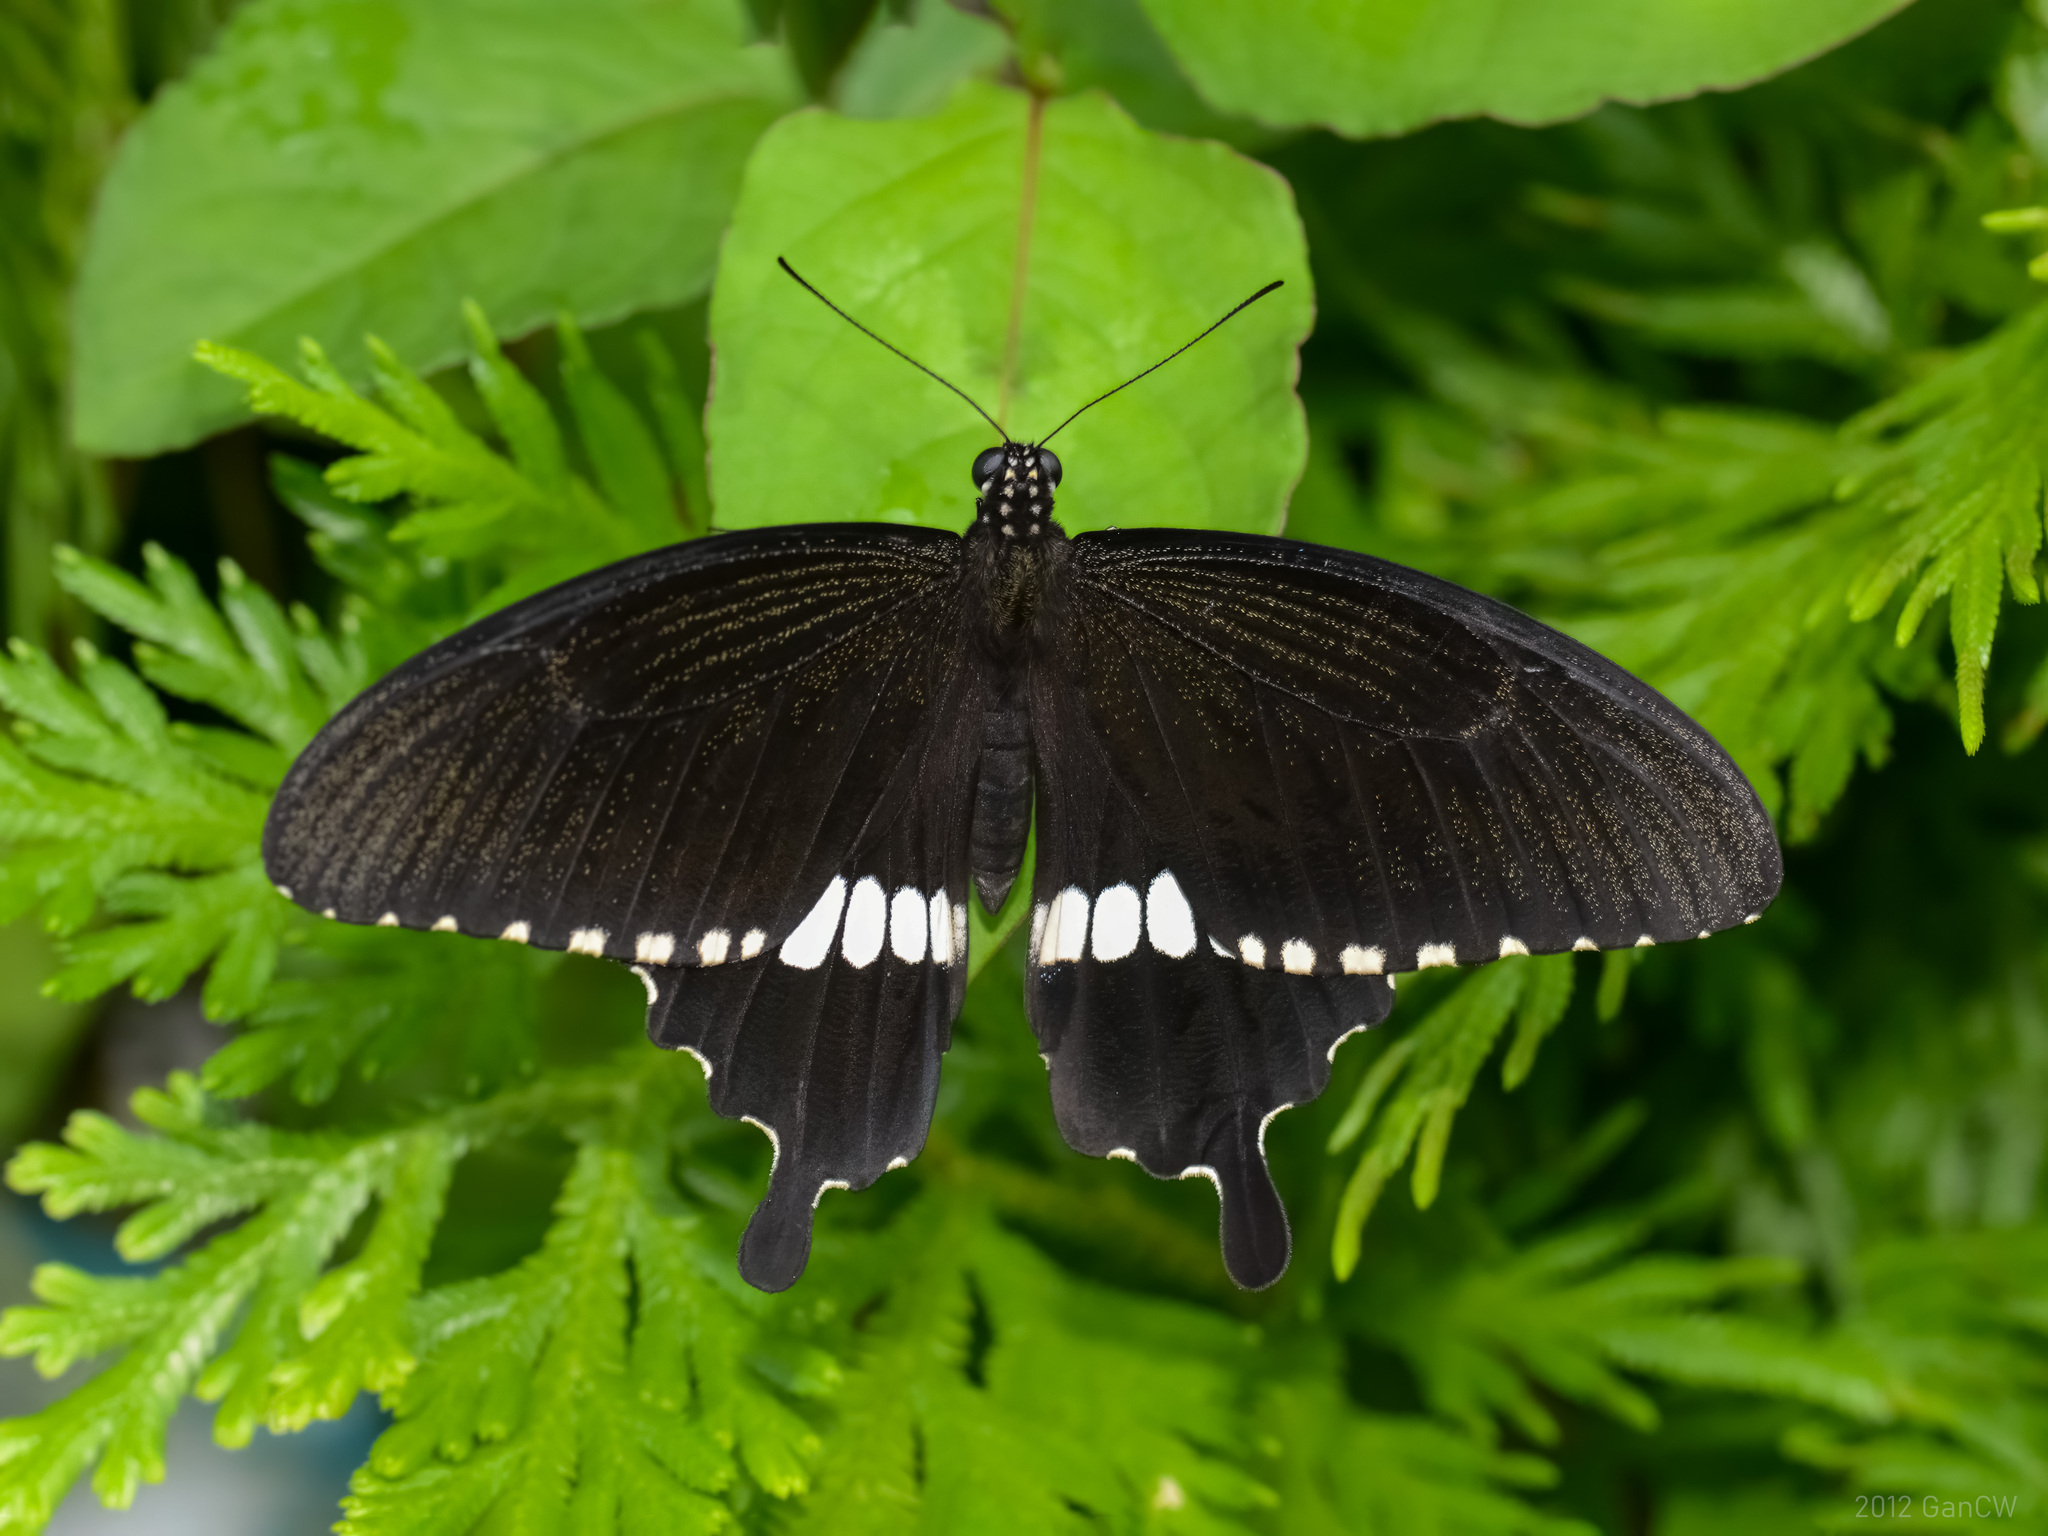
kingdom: Animalia
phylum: Arthropoda
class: Insecta
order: Lepidoptera
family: Papilionidae
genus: Papilio
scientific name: Papilio polytes
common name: Common mormon
